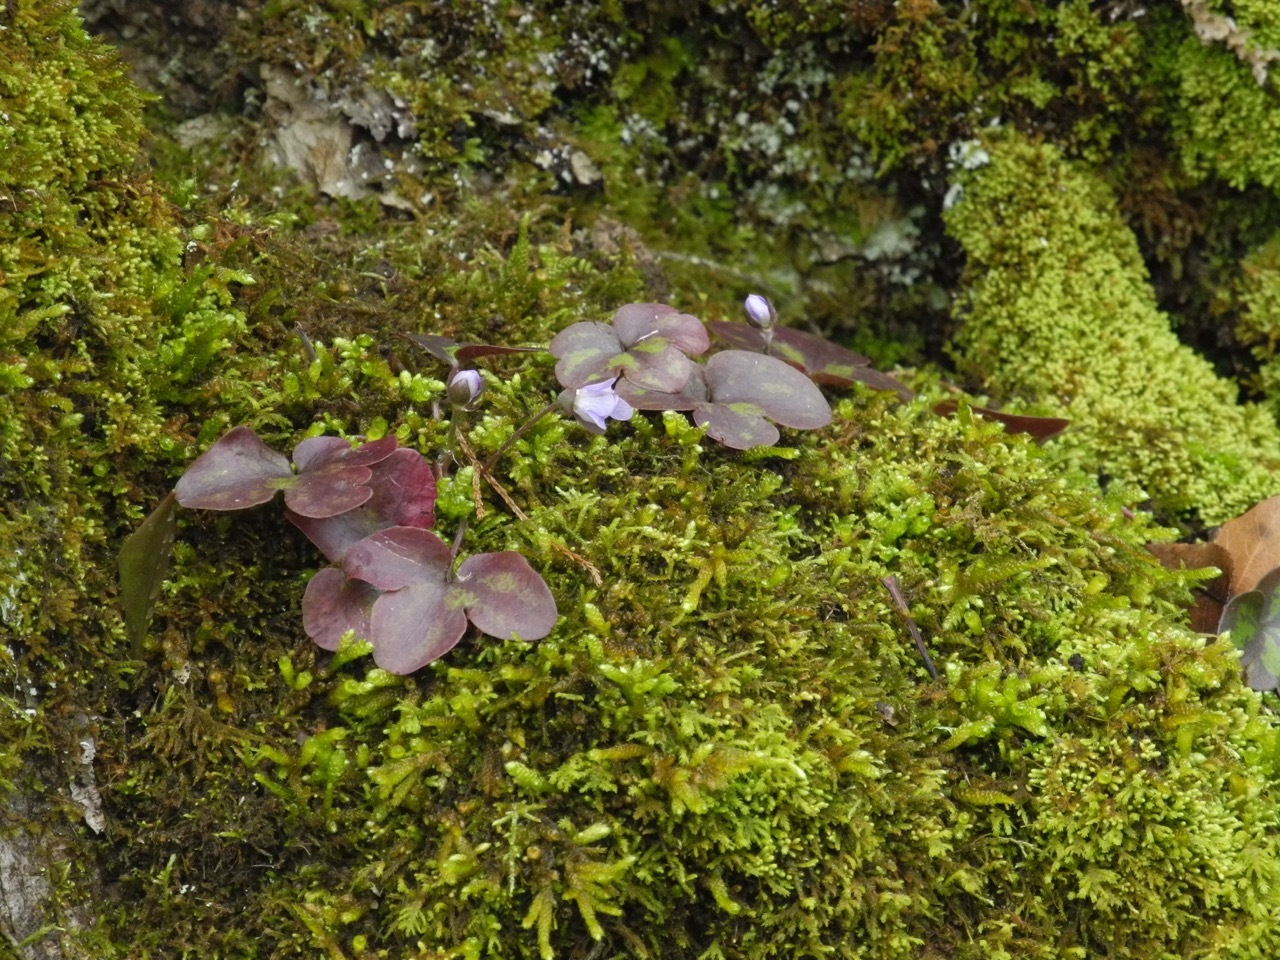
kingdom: Plantae
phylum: Tracheophyta
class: Magnoliopsida
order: Ranunculales
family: Ranunculaceae
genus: Hepatica
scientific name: Hepatica americana
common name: American hepatica
